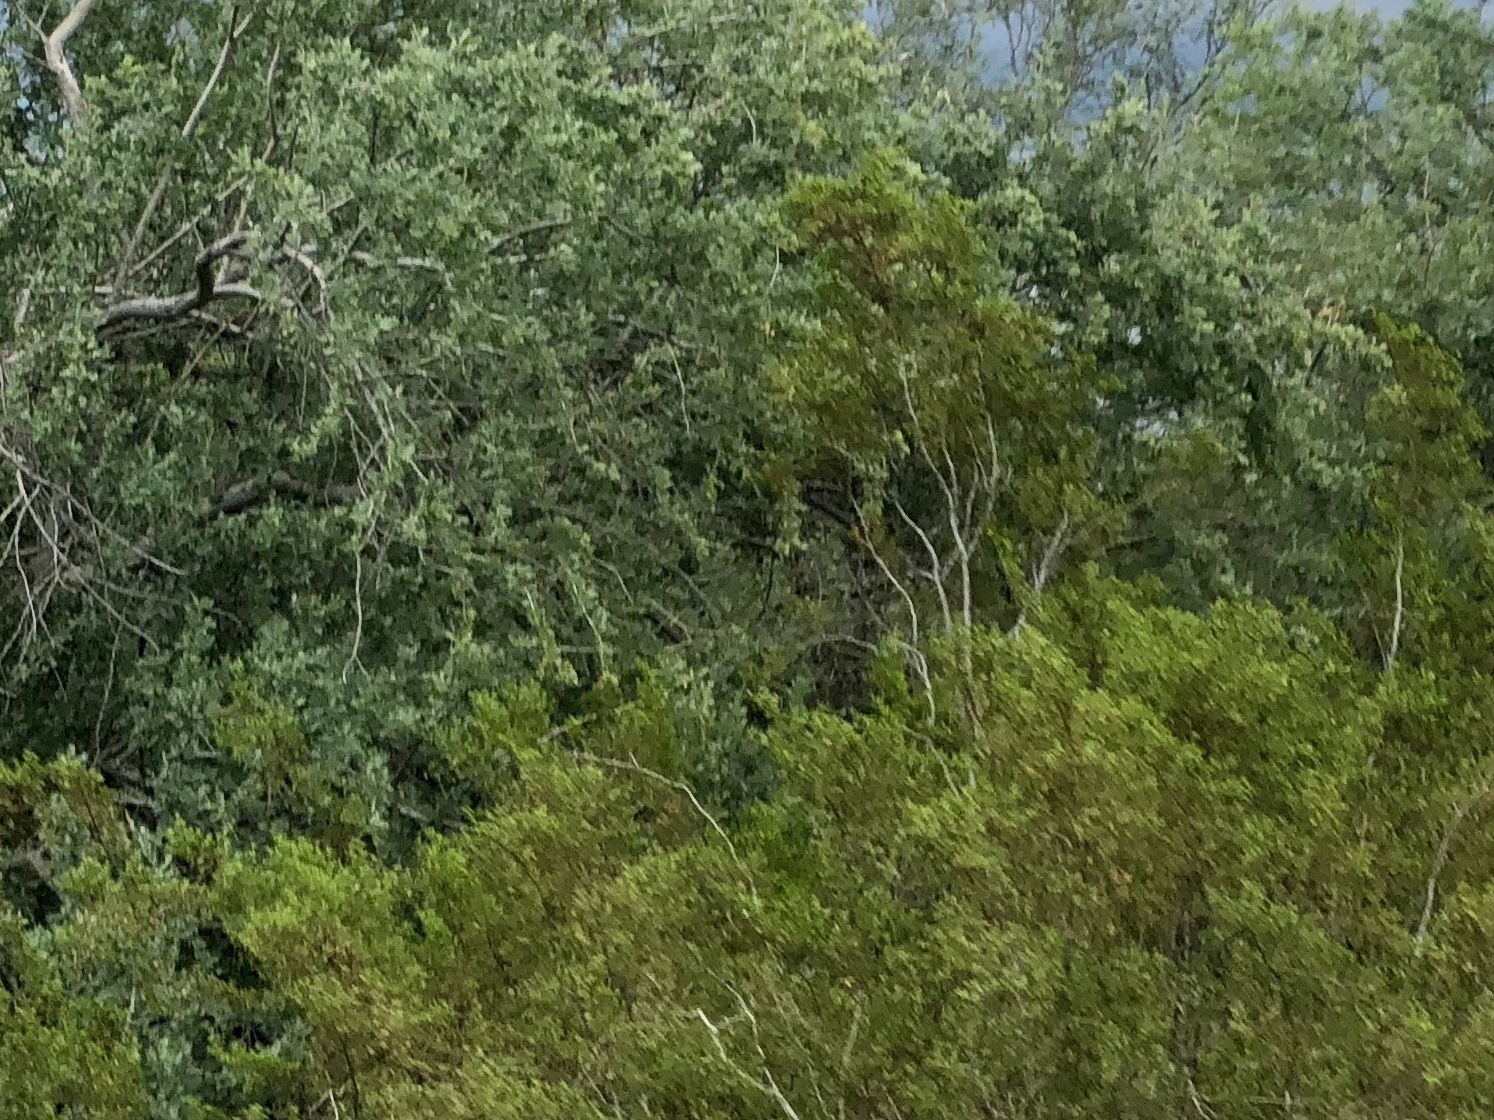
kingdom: Plantae
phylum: Tracheophyta
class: Magnoliopsida
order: Zygophyllales
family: Zygophyllaceae
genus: Larrea
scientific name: Larrea tridentata
